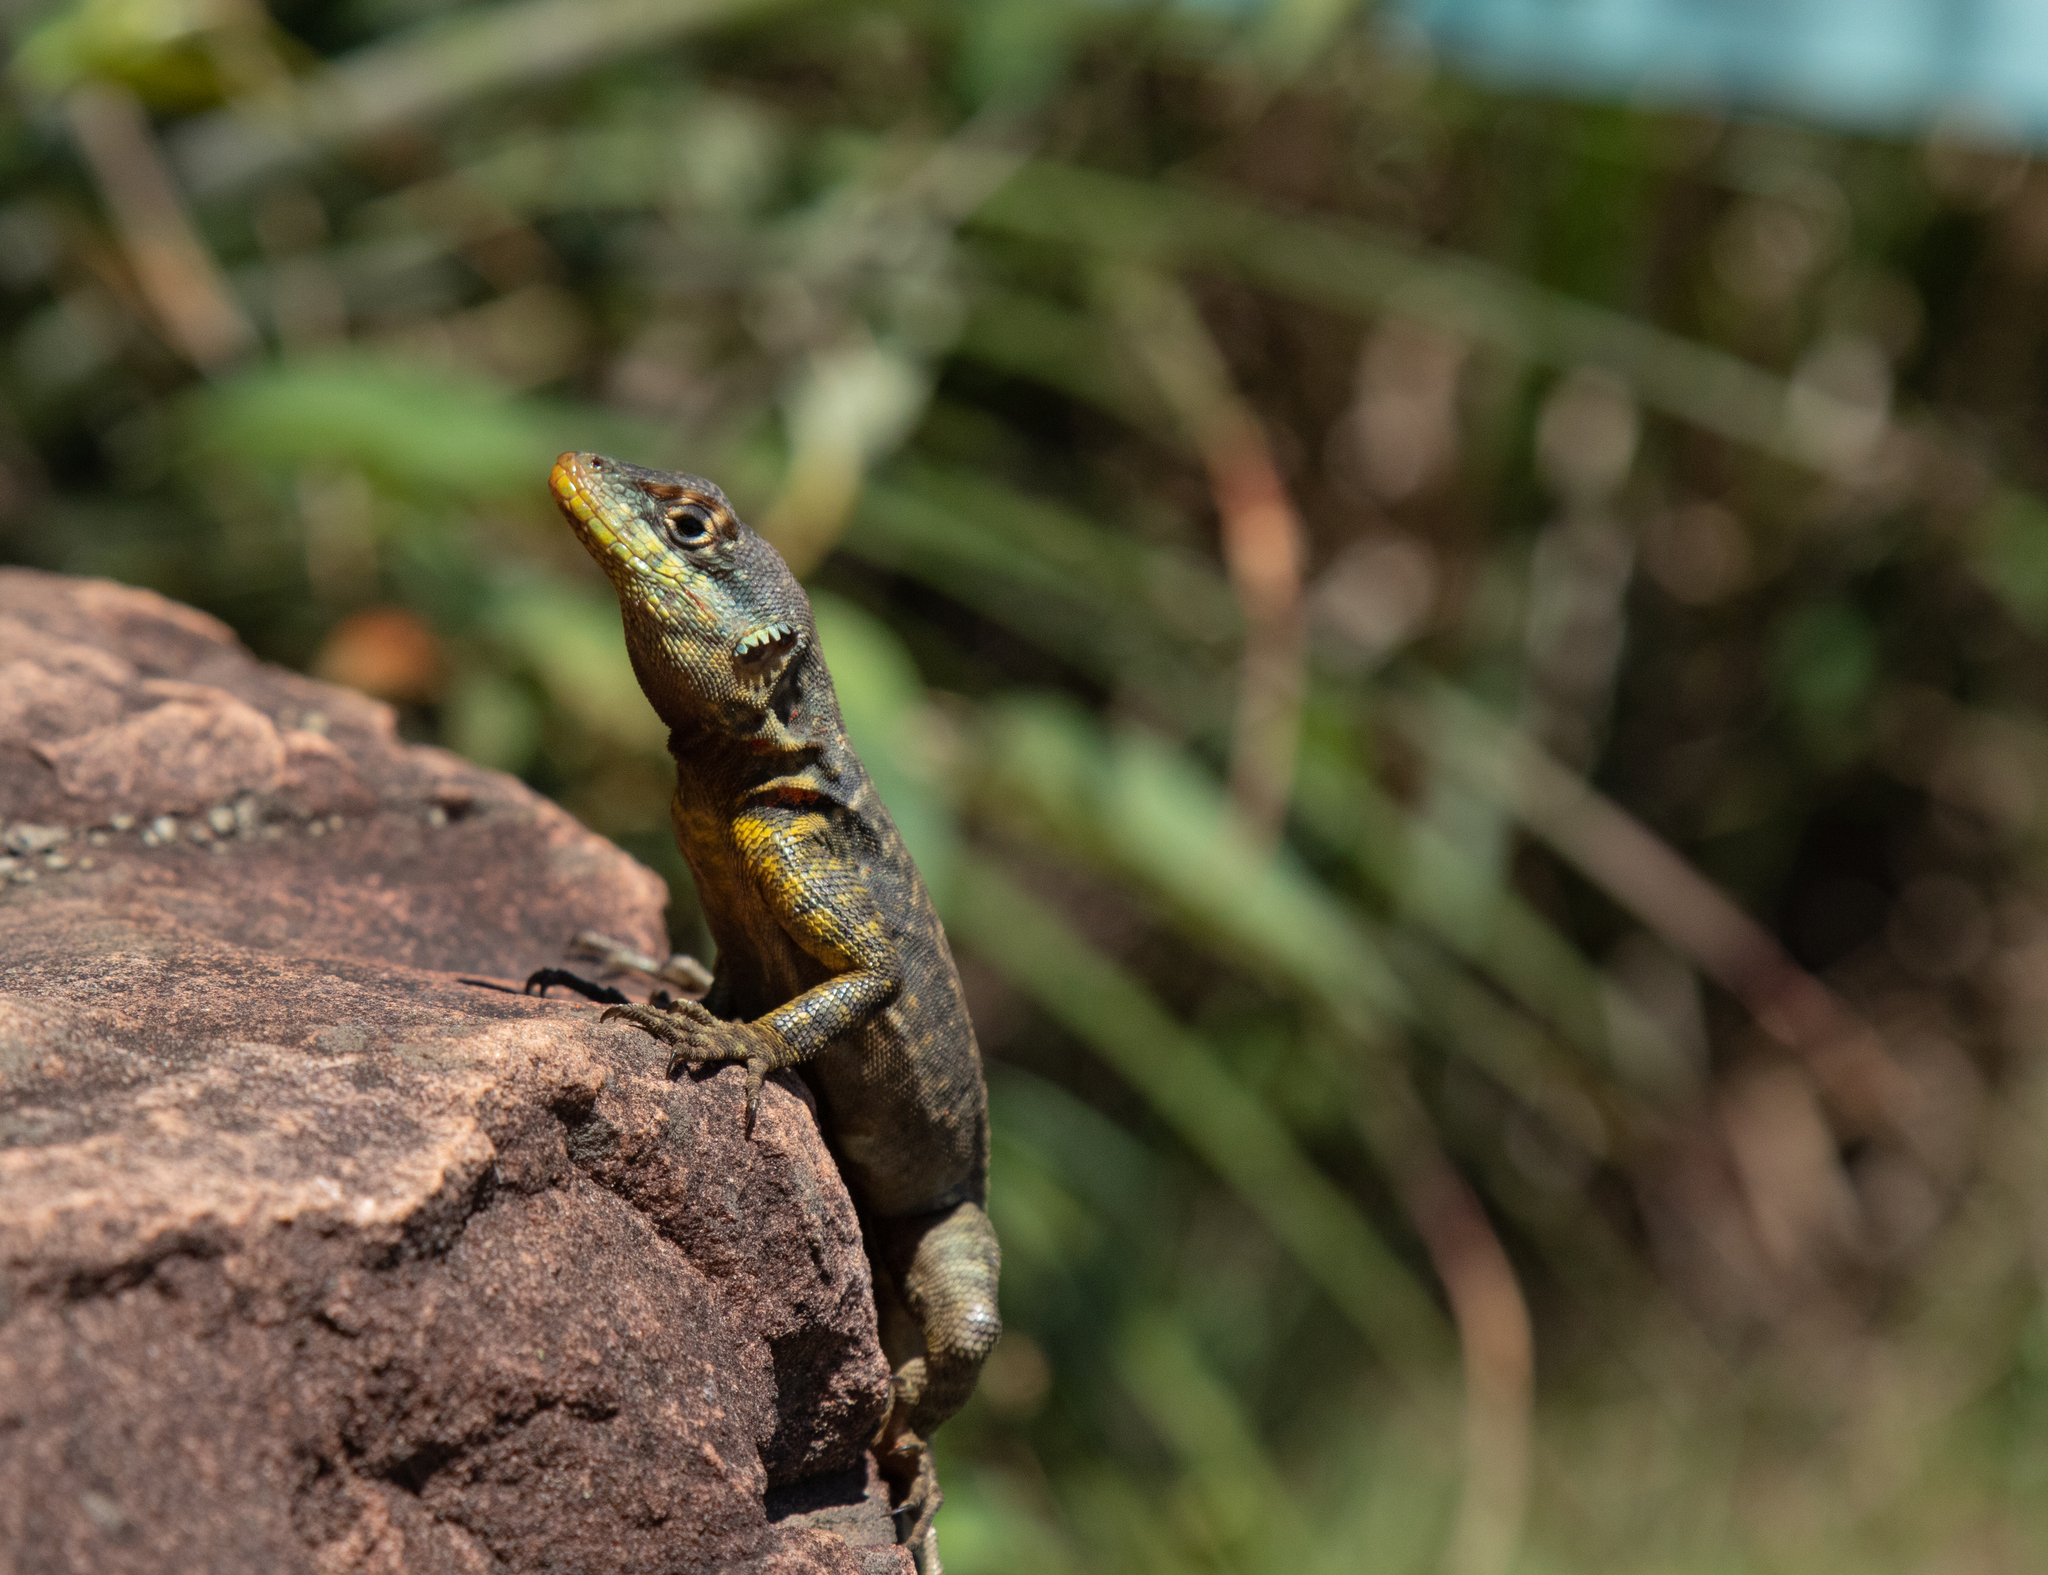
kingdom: Animalia
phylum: Chordata
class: Squamata
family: Tropiduridae
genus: Tropidurus
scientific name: Tropidurus catalanensis
